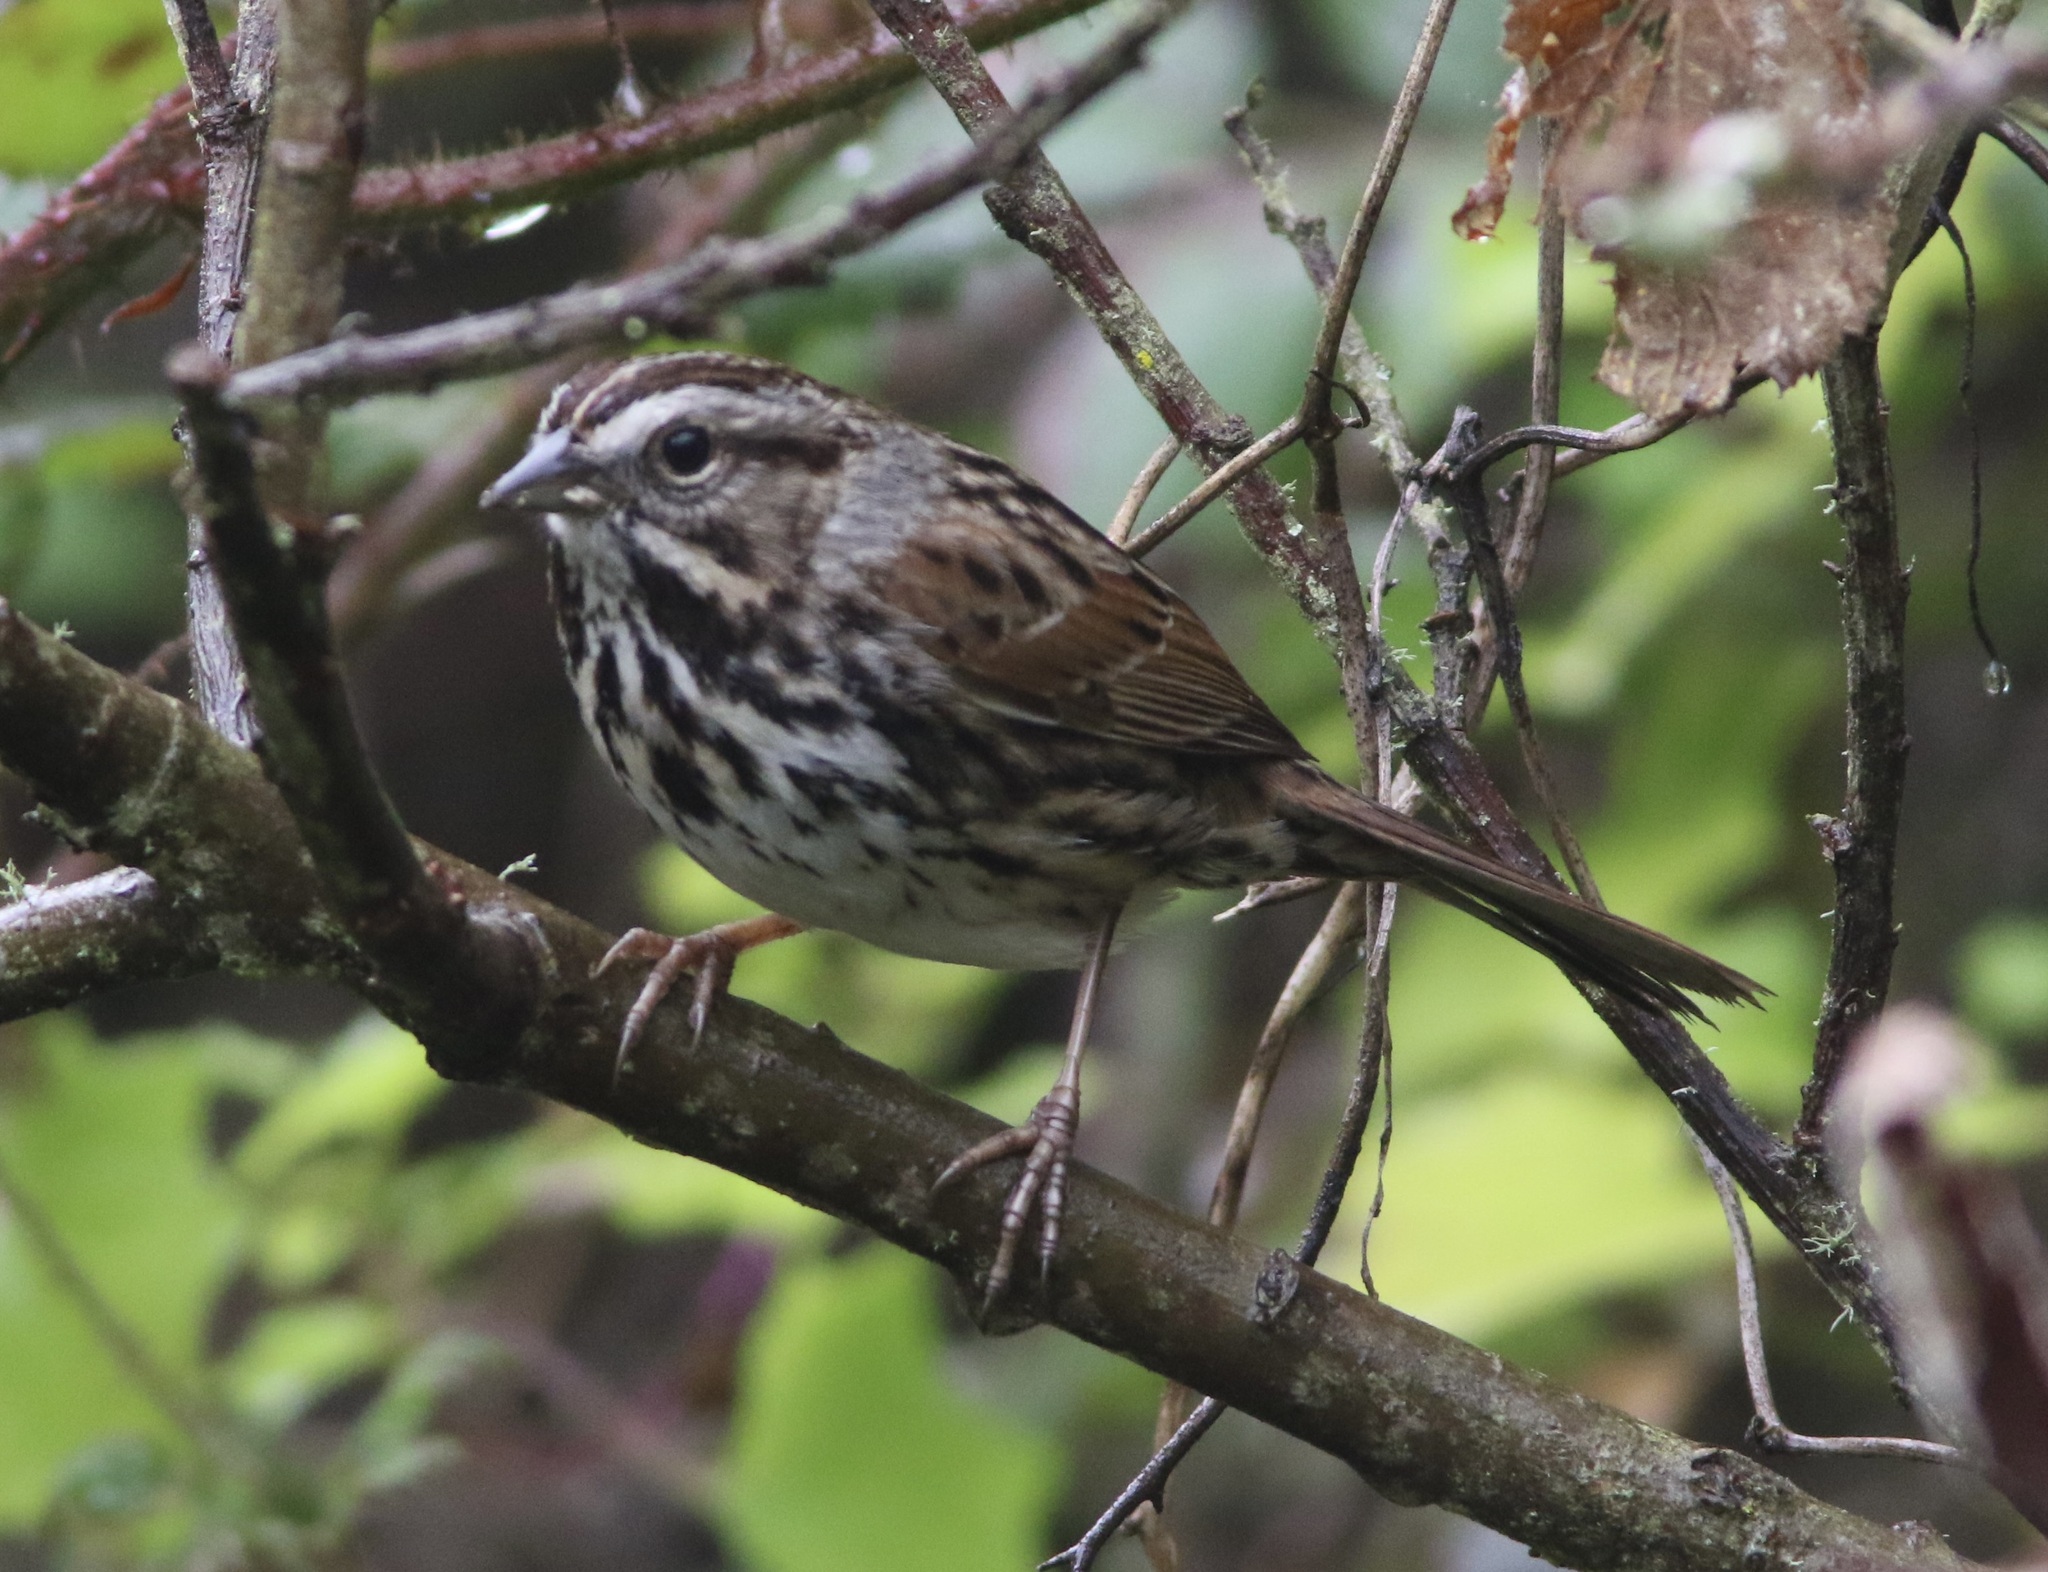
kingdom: Animalia
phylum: Chordata
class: Aves
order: Passeriformes
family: Passerellidae
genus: Melospiza
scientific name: Melospiza melodia
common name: Song sparrow
